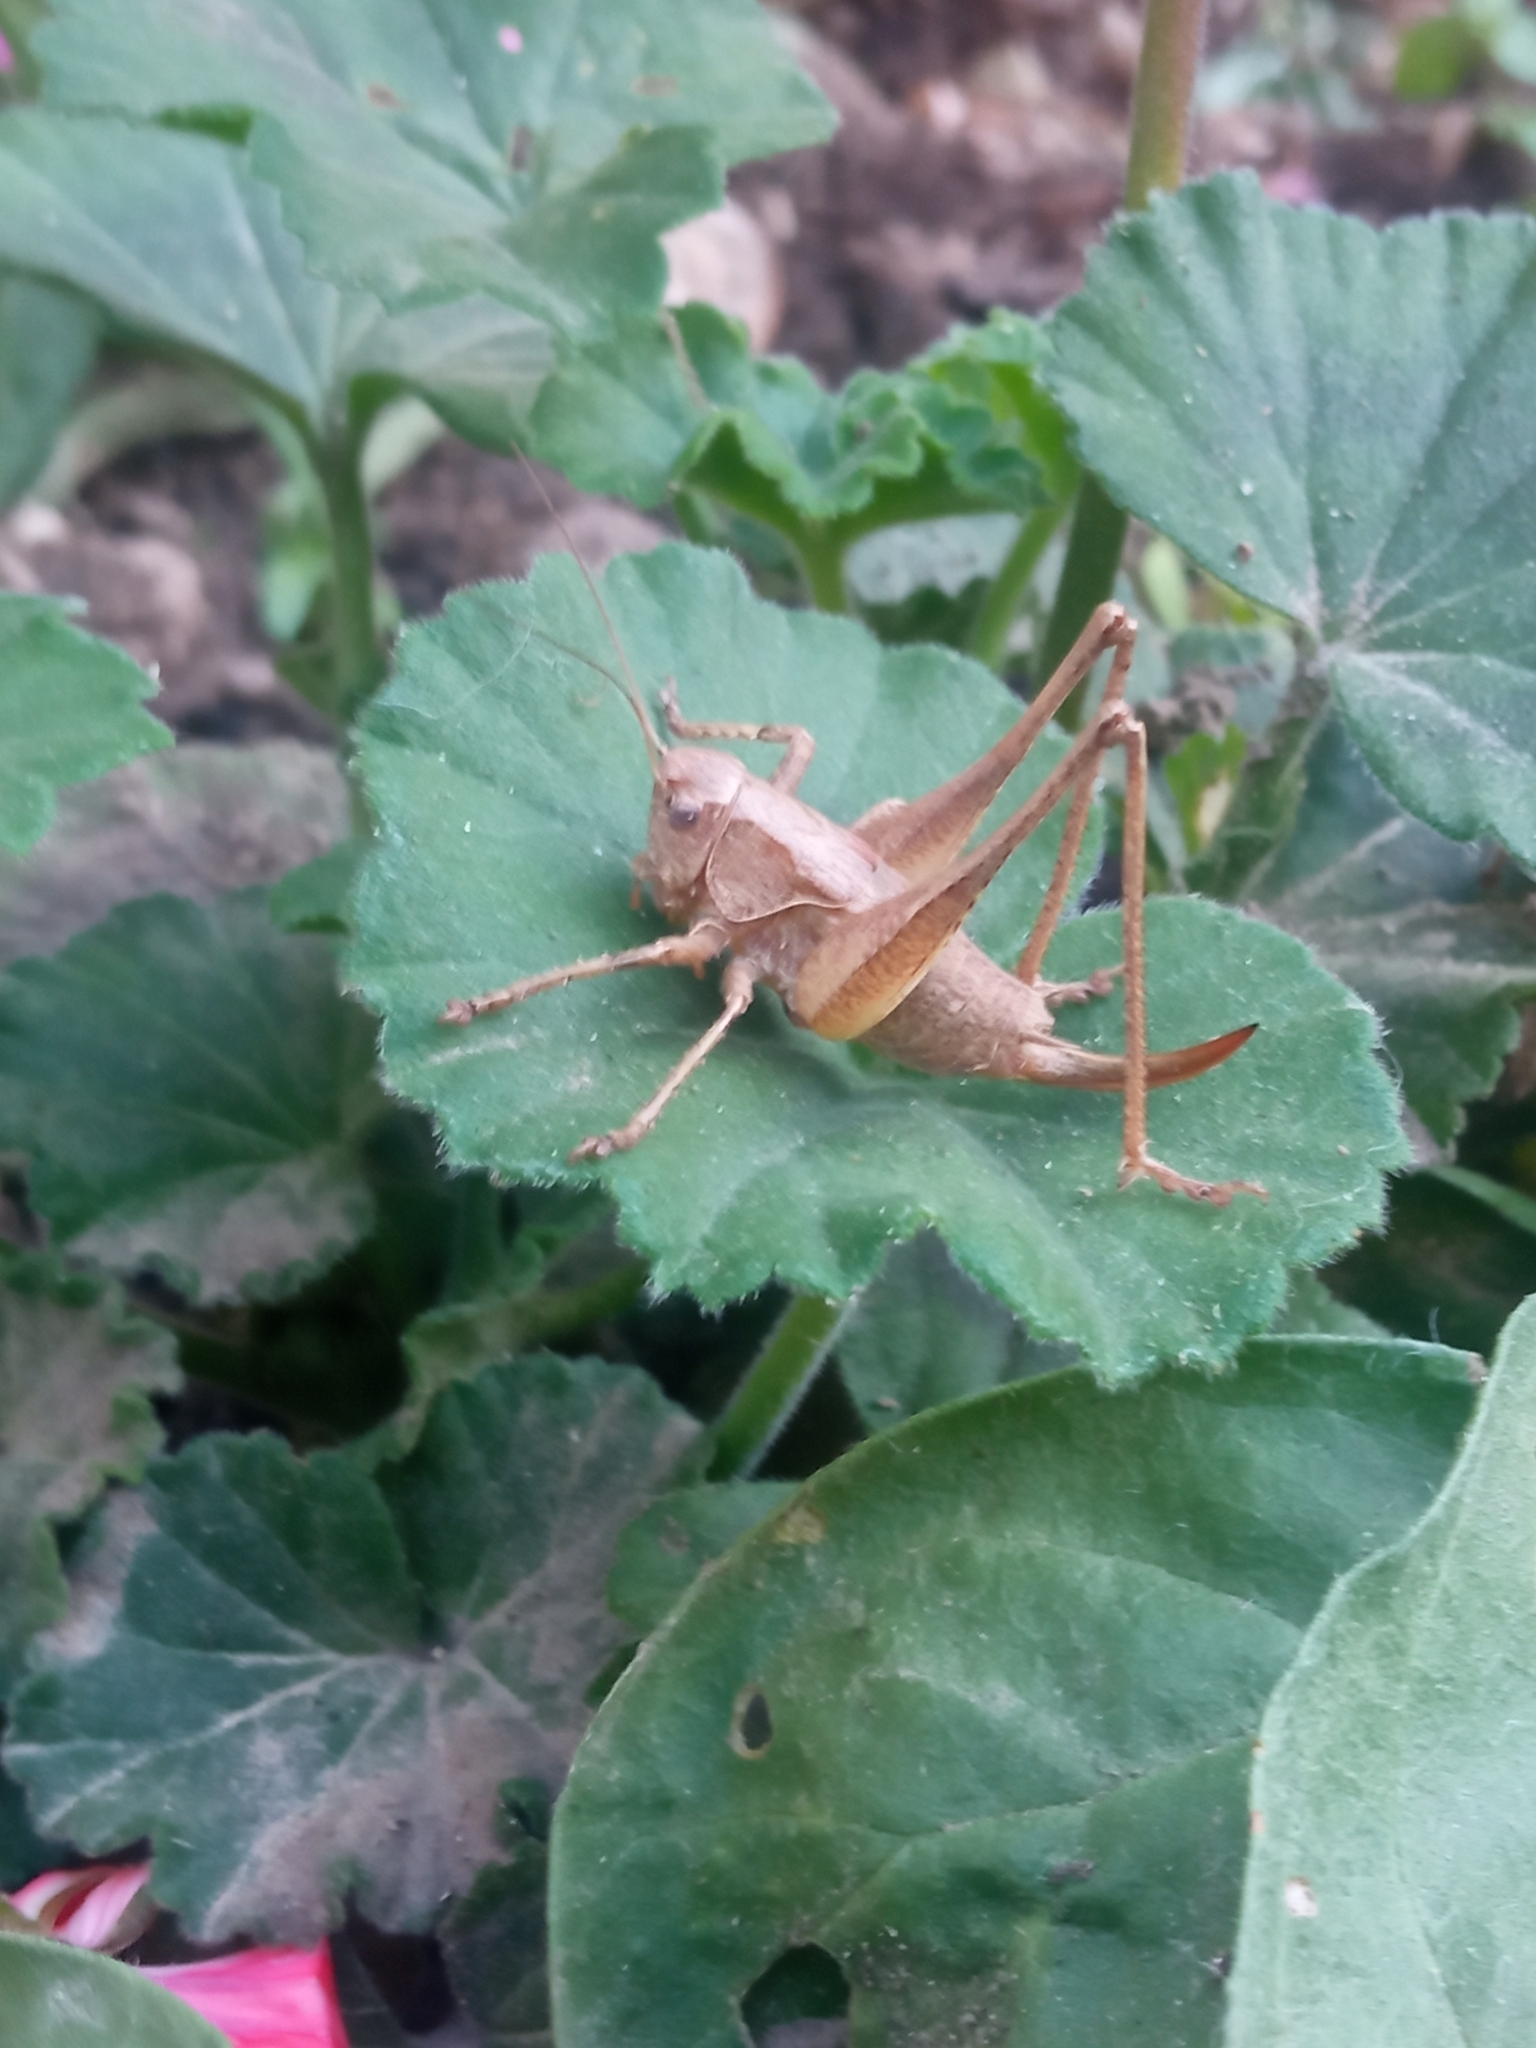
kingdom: Animalia
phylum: Arthropoda
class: Insecta
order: Orthoptera
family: Tettigoniidae
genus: Pholidoptera
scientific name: Pholidoptera griseoaptera
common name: Dark bush-cricket
